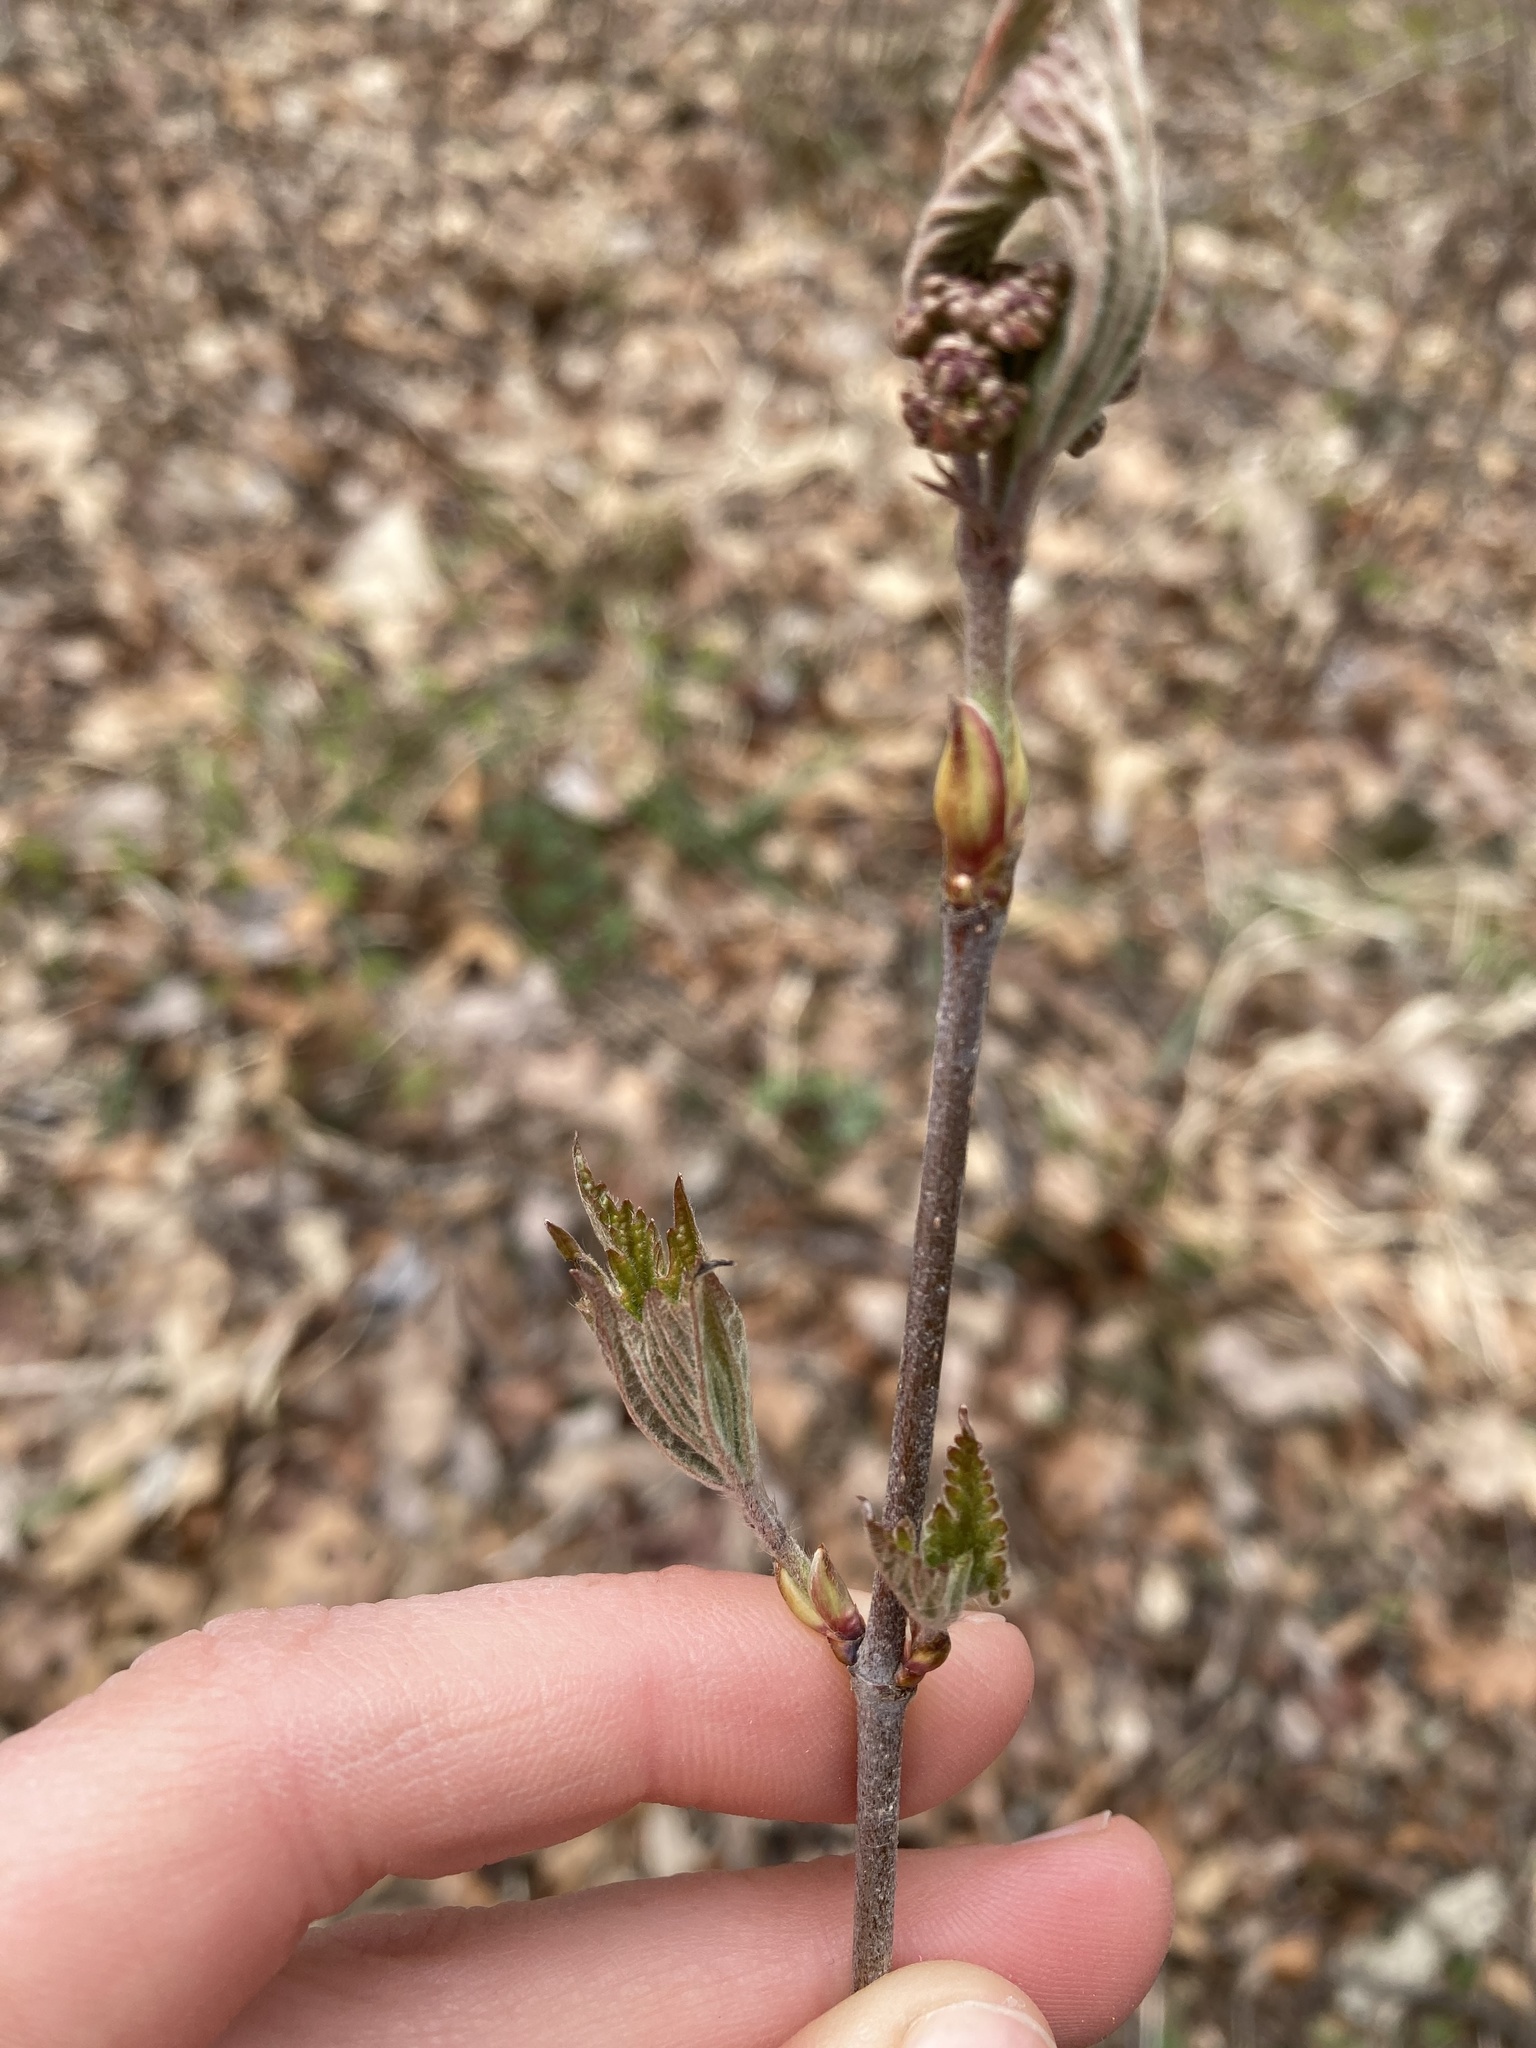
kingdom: Plantae
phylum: Tracheophyta
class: Magnoliopsida
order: Dipsacales
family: Viburnaceae
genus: Viburnum
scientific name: Viburnum acerifolium
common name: Dockmackie
